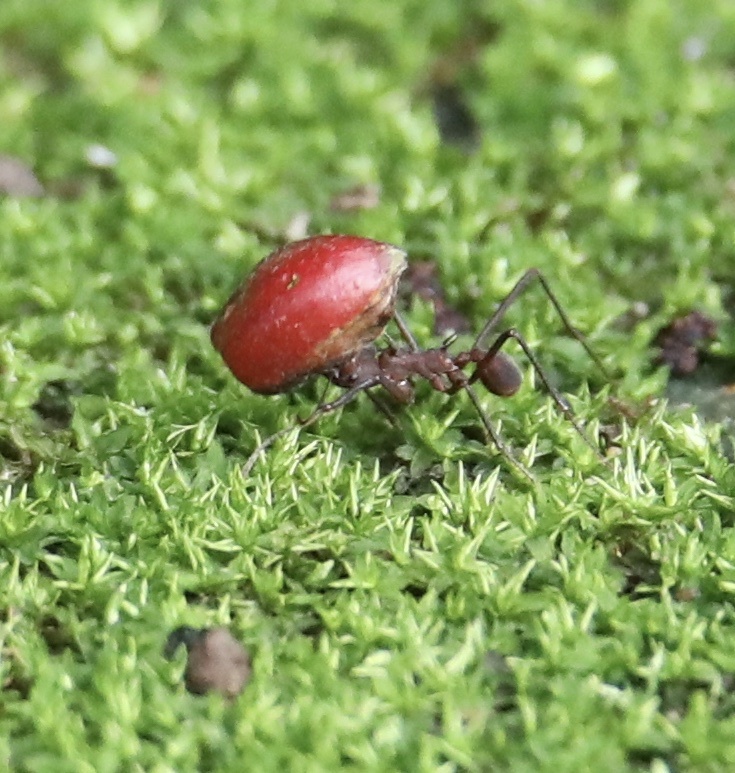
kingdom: Animalia
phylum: Arthropoda
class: Insecta
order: Hymenoptera
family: Formicidae
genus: Atta
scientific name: Atta colombica
